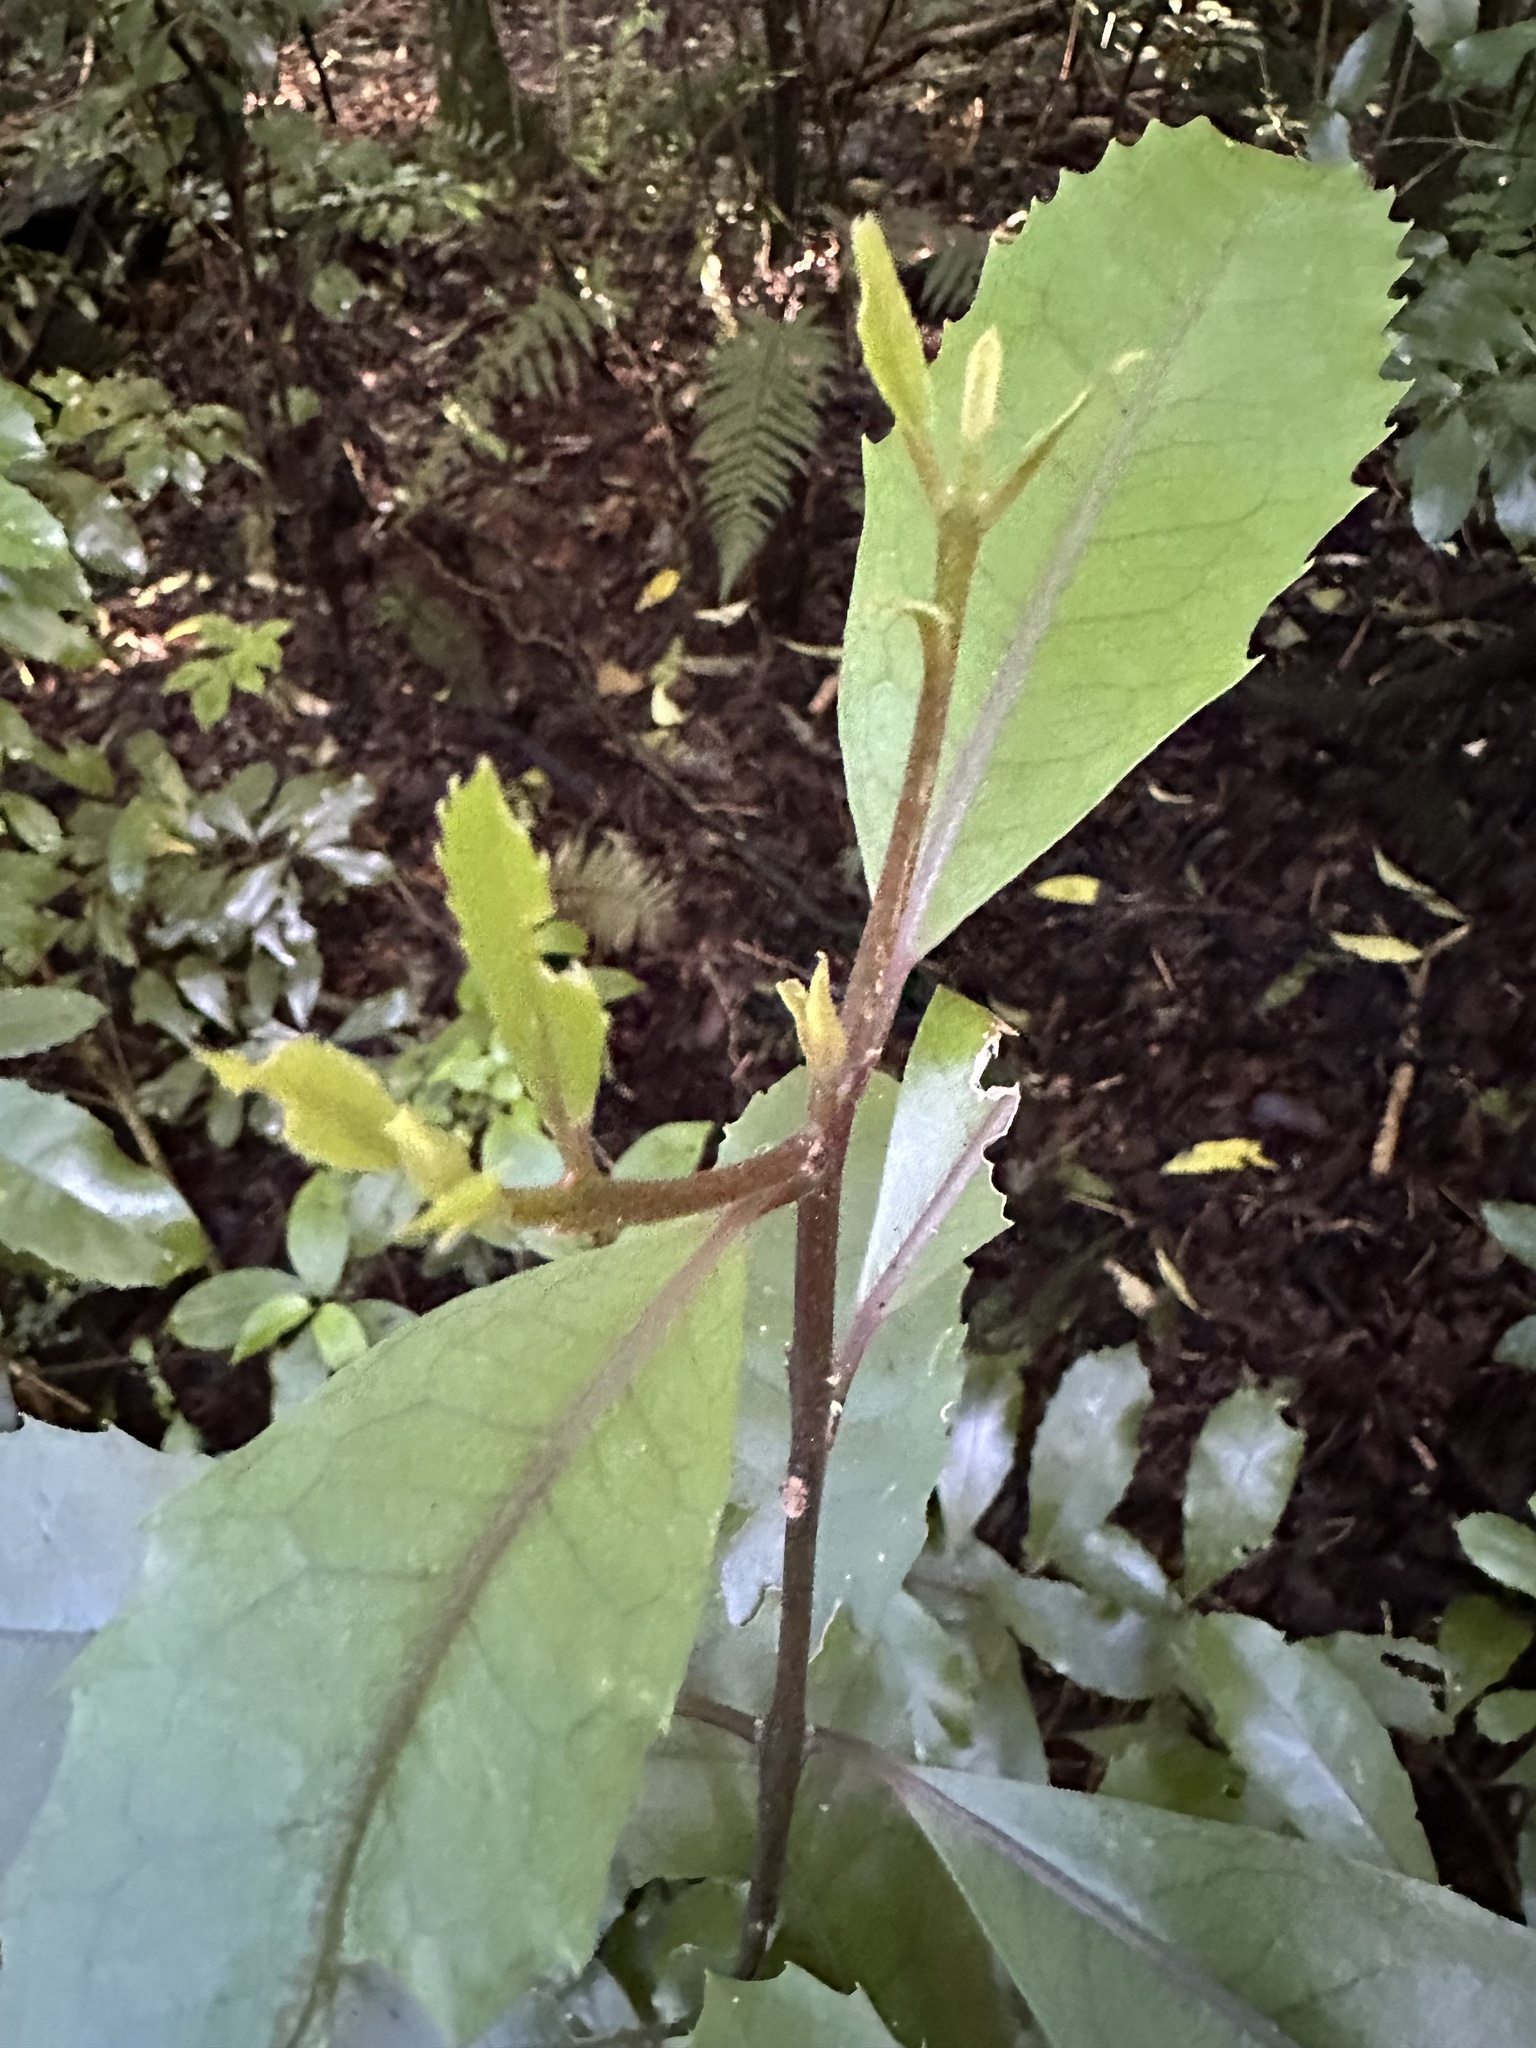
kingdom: Plantae
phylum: Tracheophyta
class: Magnoliopsida
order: Laurales
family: Monimiaceae
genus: Hedycarya
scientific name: Hedycarya arborea
